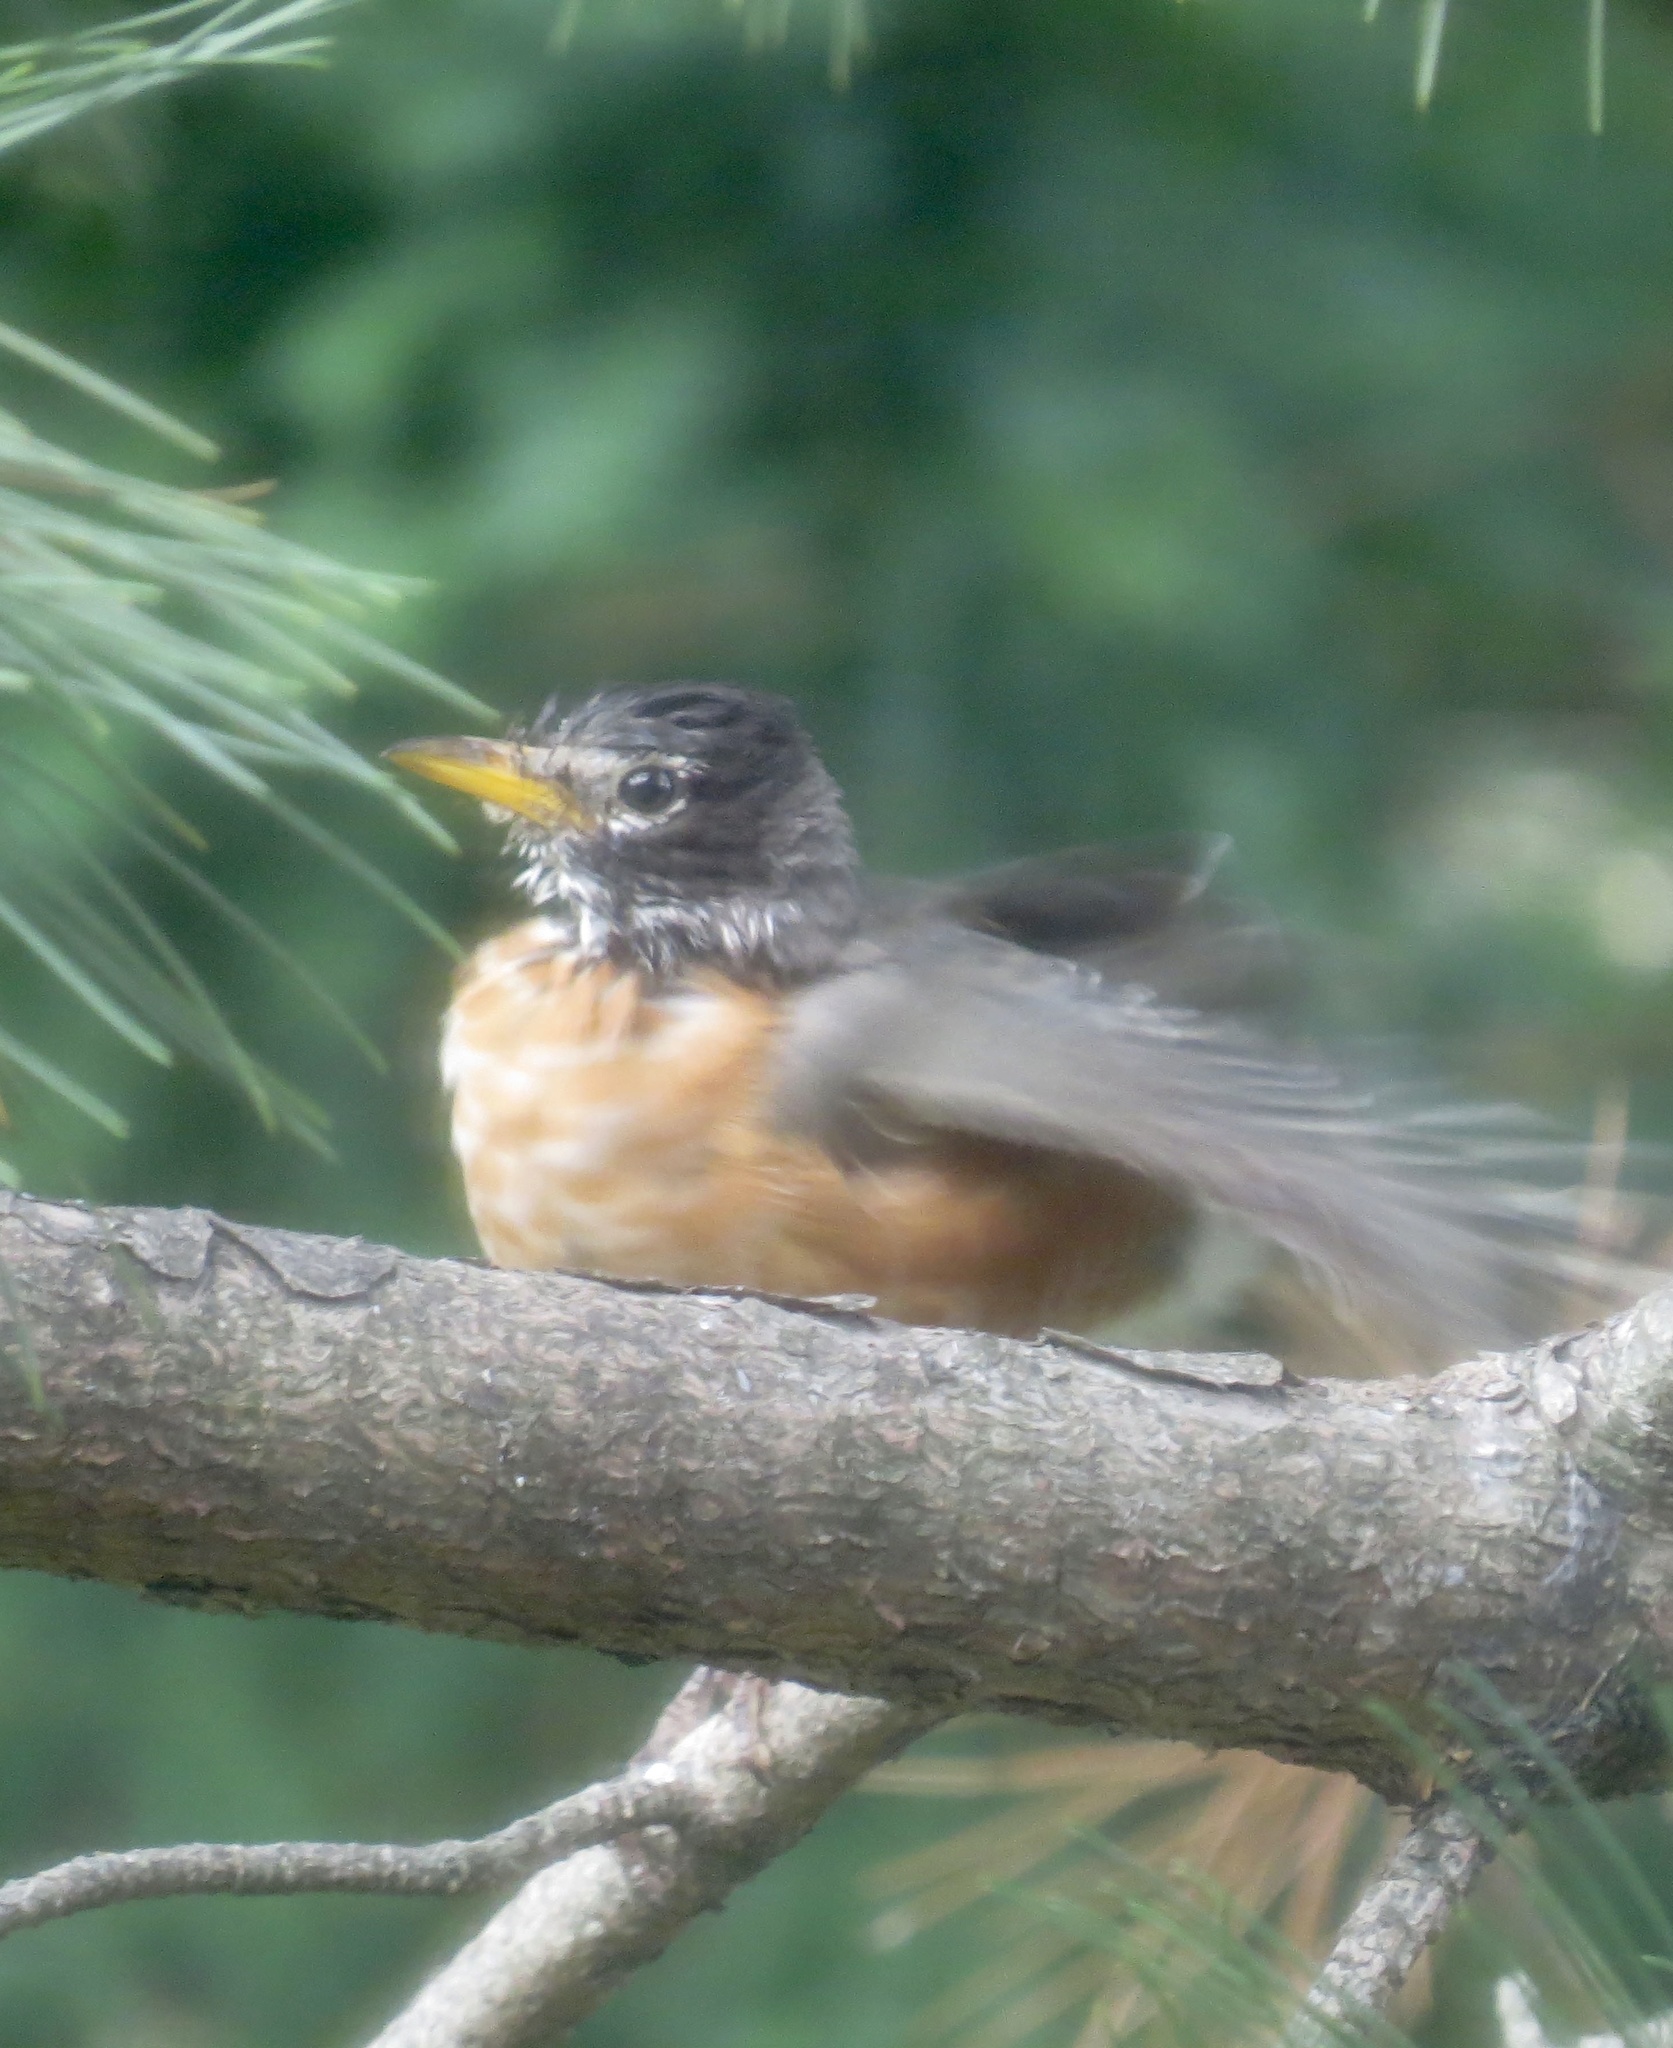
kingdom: Animalia
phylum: Chordata
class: Aves
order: Passeriformes
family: Turdidae
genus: Turdus
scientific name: Turdus migratorius
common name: American robin
